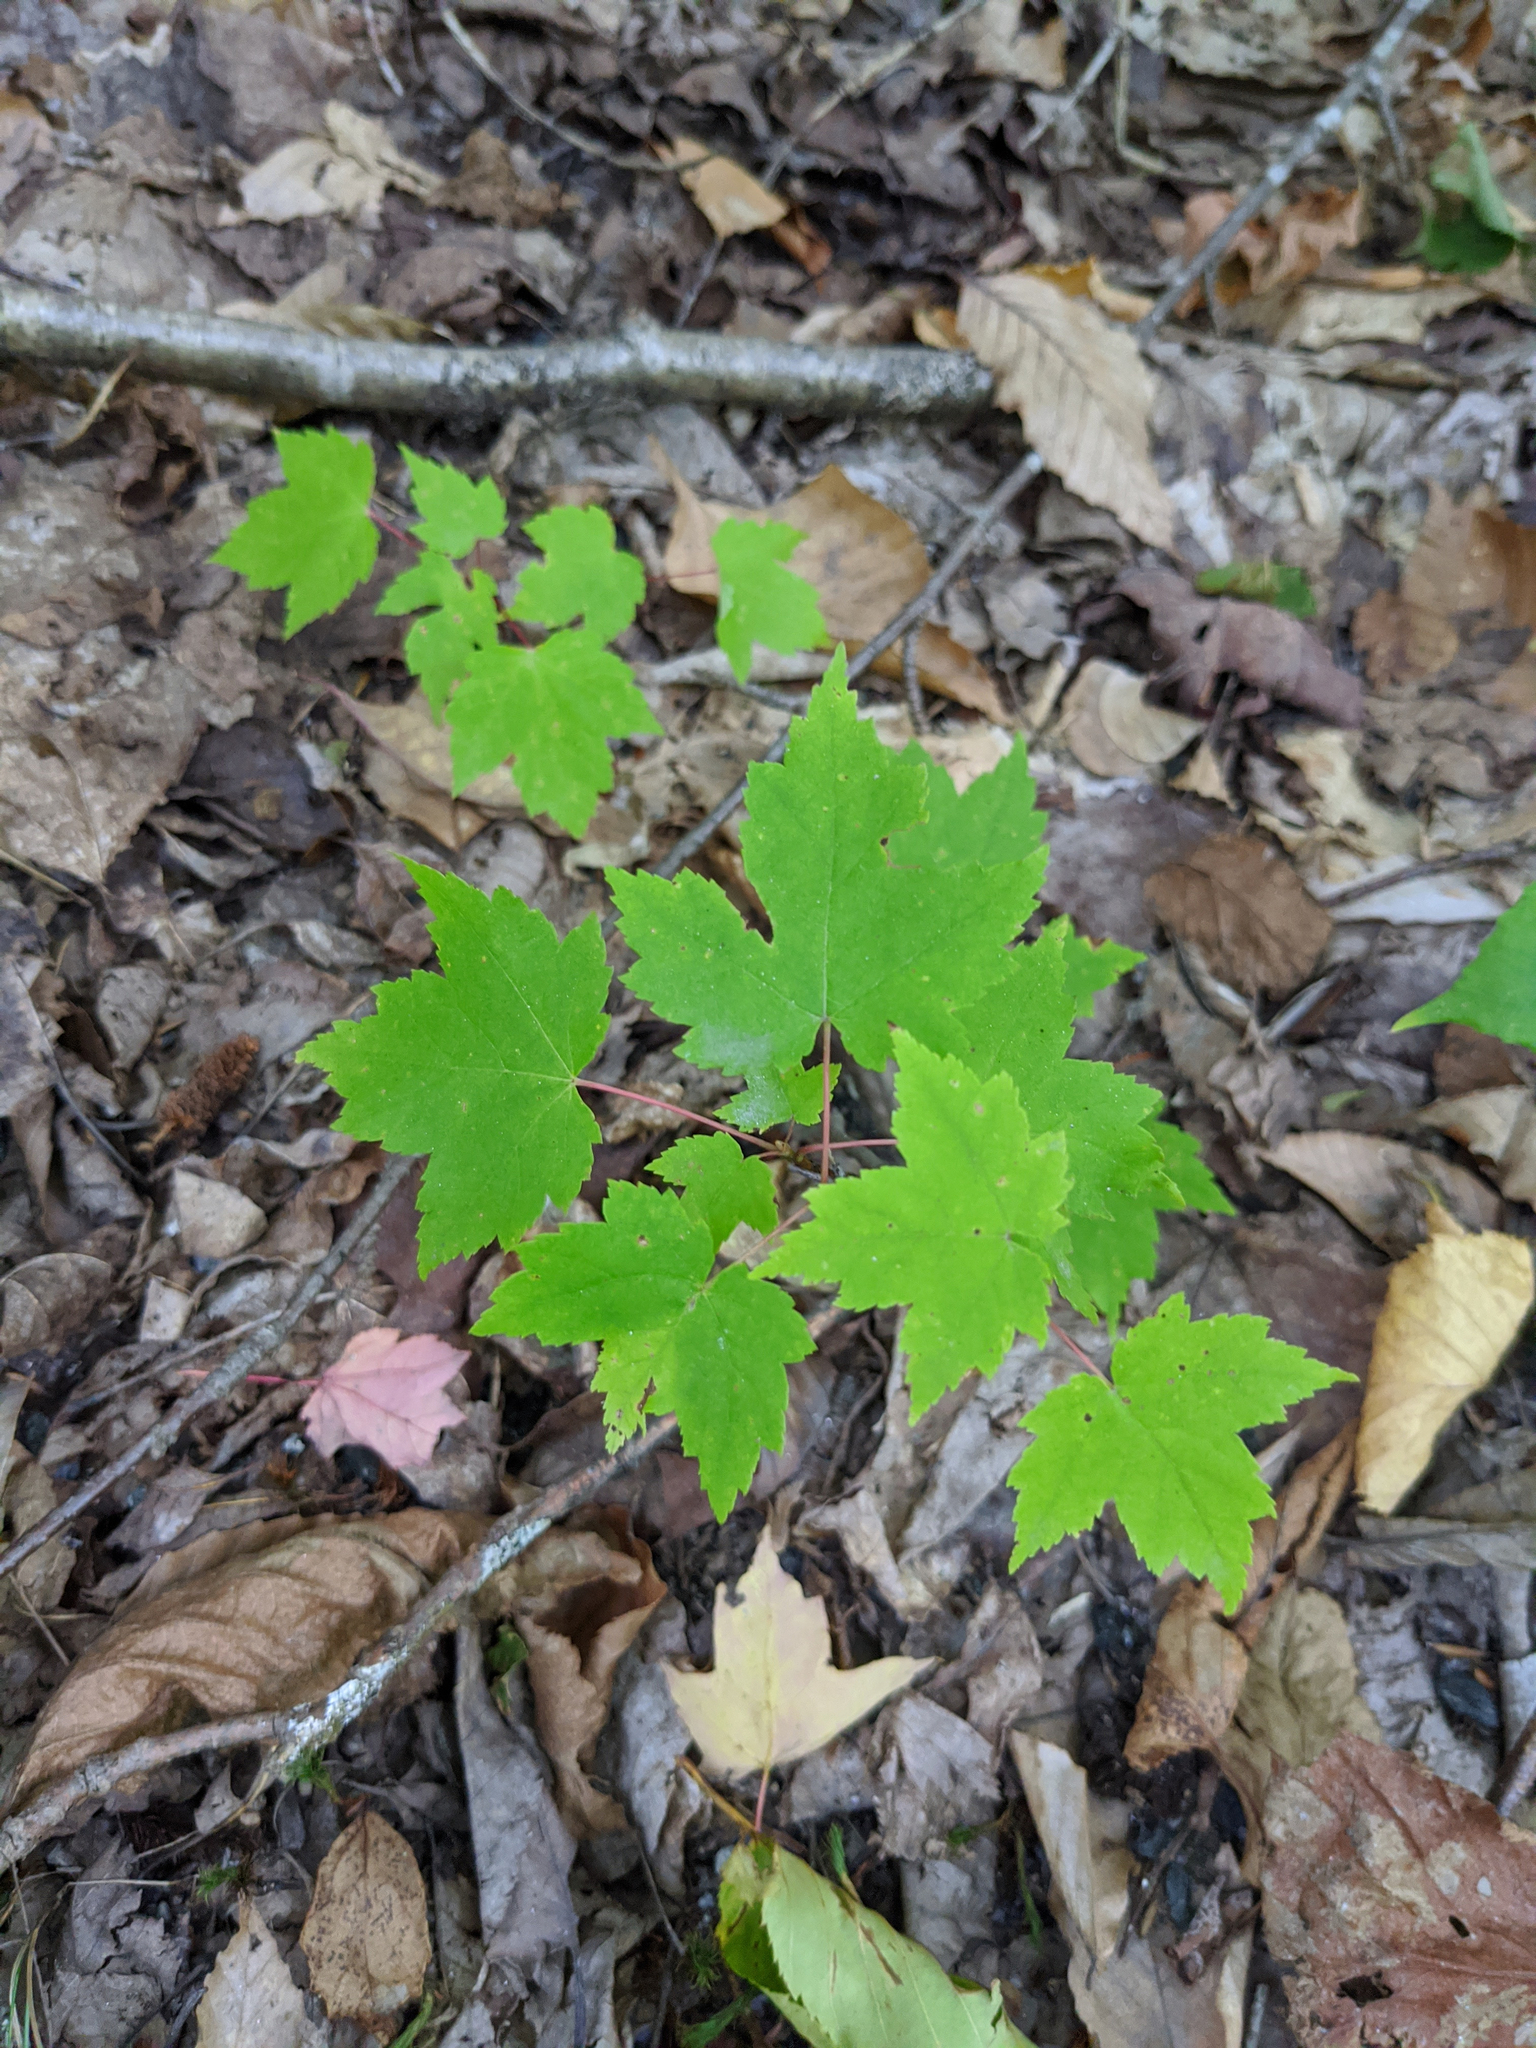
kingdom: Plantae
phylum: Tracheophyta
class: Magnoliopsida
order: Sapindales
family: Sapindaceae
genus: Acer
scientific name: Acer rubrum
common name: Red maple
